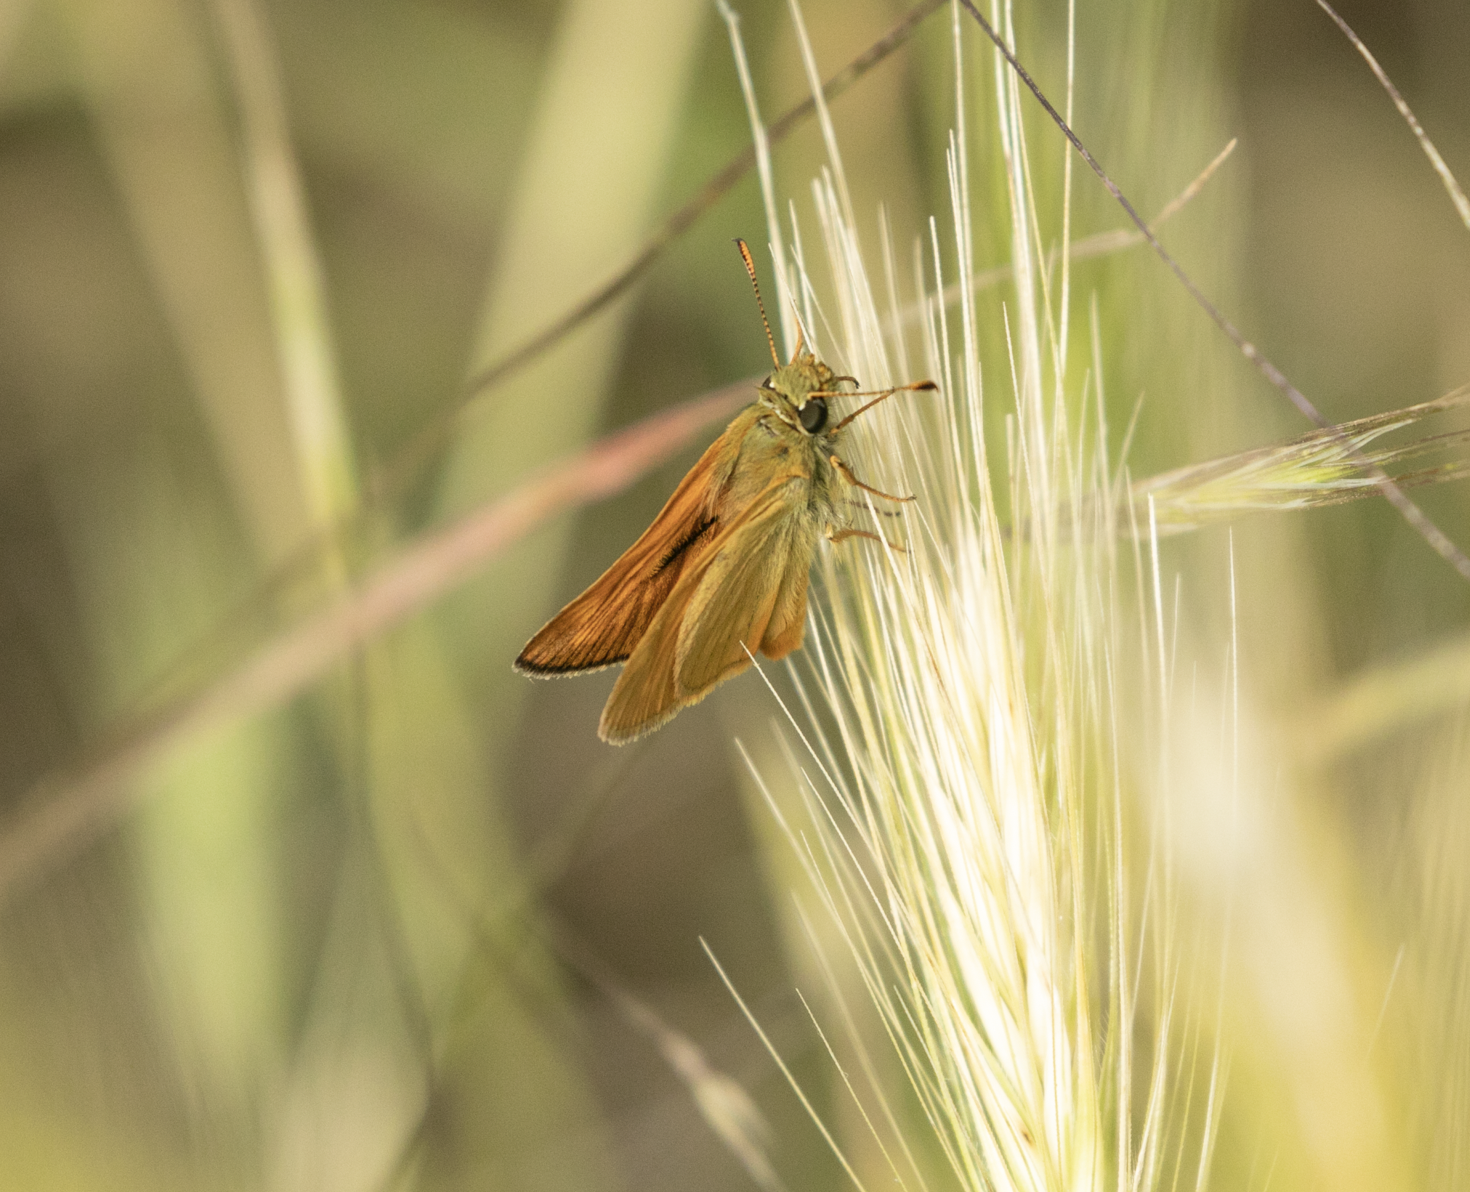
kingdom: Animalia
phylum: Arthropoda
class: Insecta
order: Lepidoptera
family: Hesperiidae
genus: Ochlodes
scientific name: Ochlodes venata
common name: Large skipper
